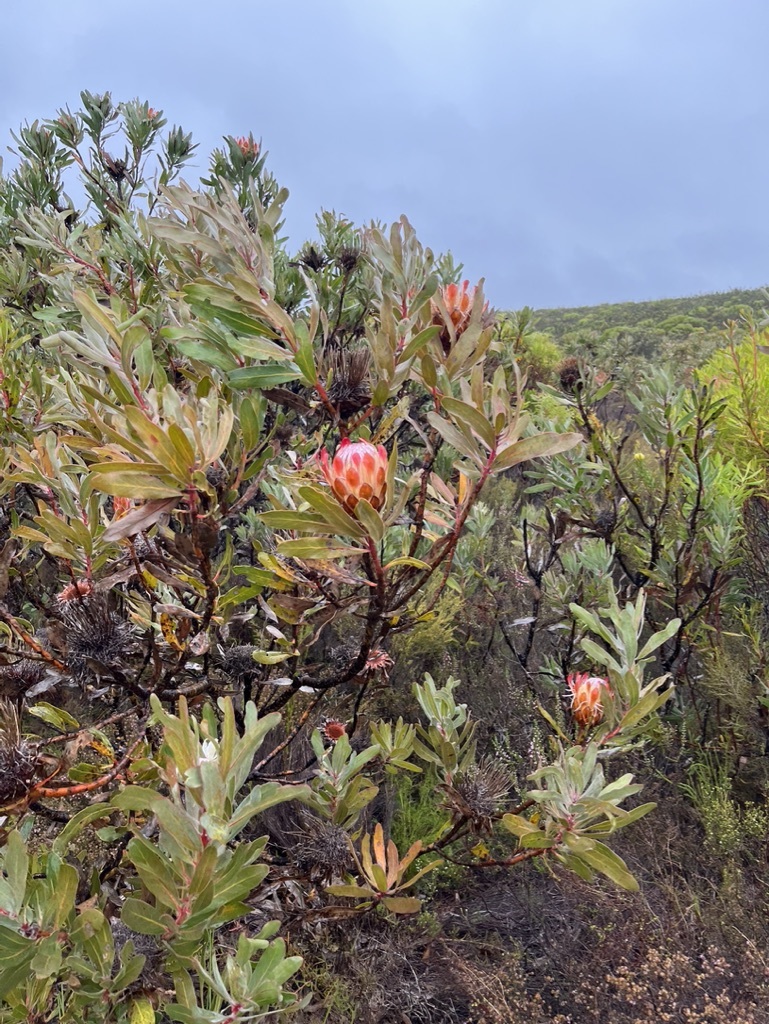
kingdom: Plantae
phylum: Tracheophyta
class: Magnoliopsida
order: Proteales
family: Proteaceae
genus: Protea
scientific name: Protea susannae
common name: Foetid-leaf sugarbush
